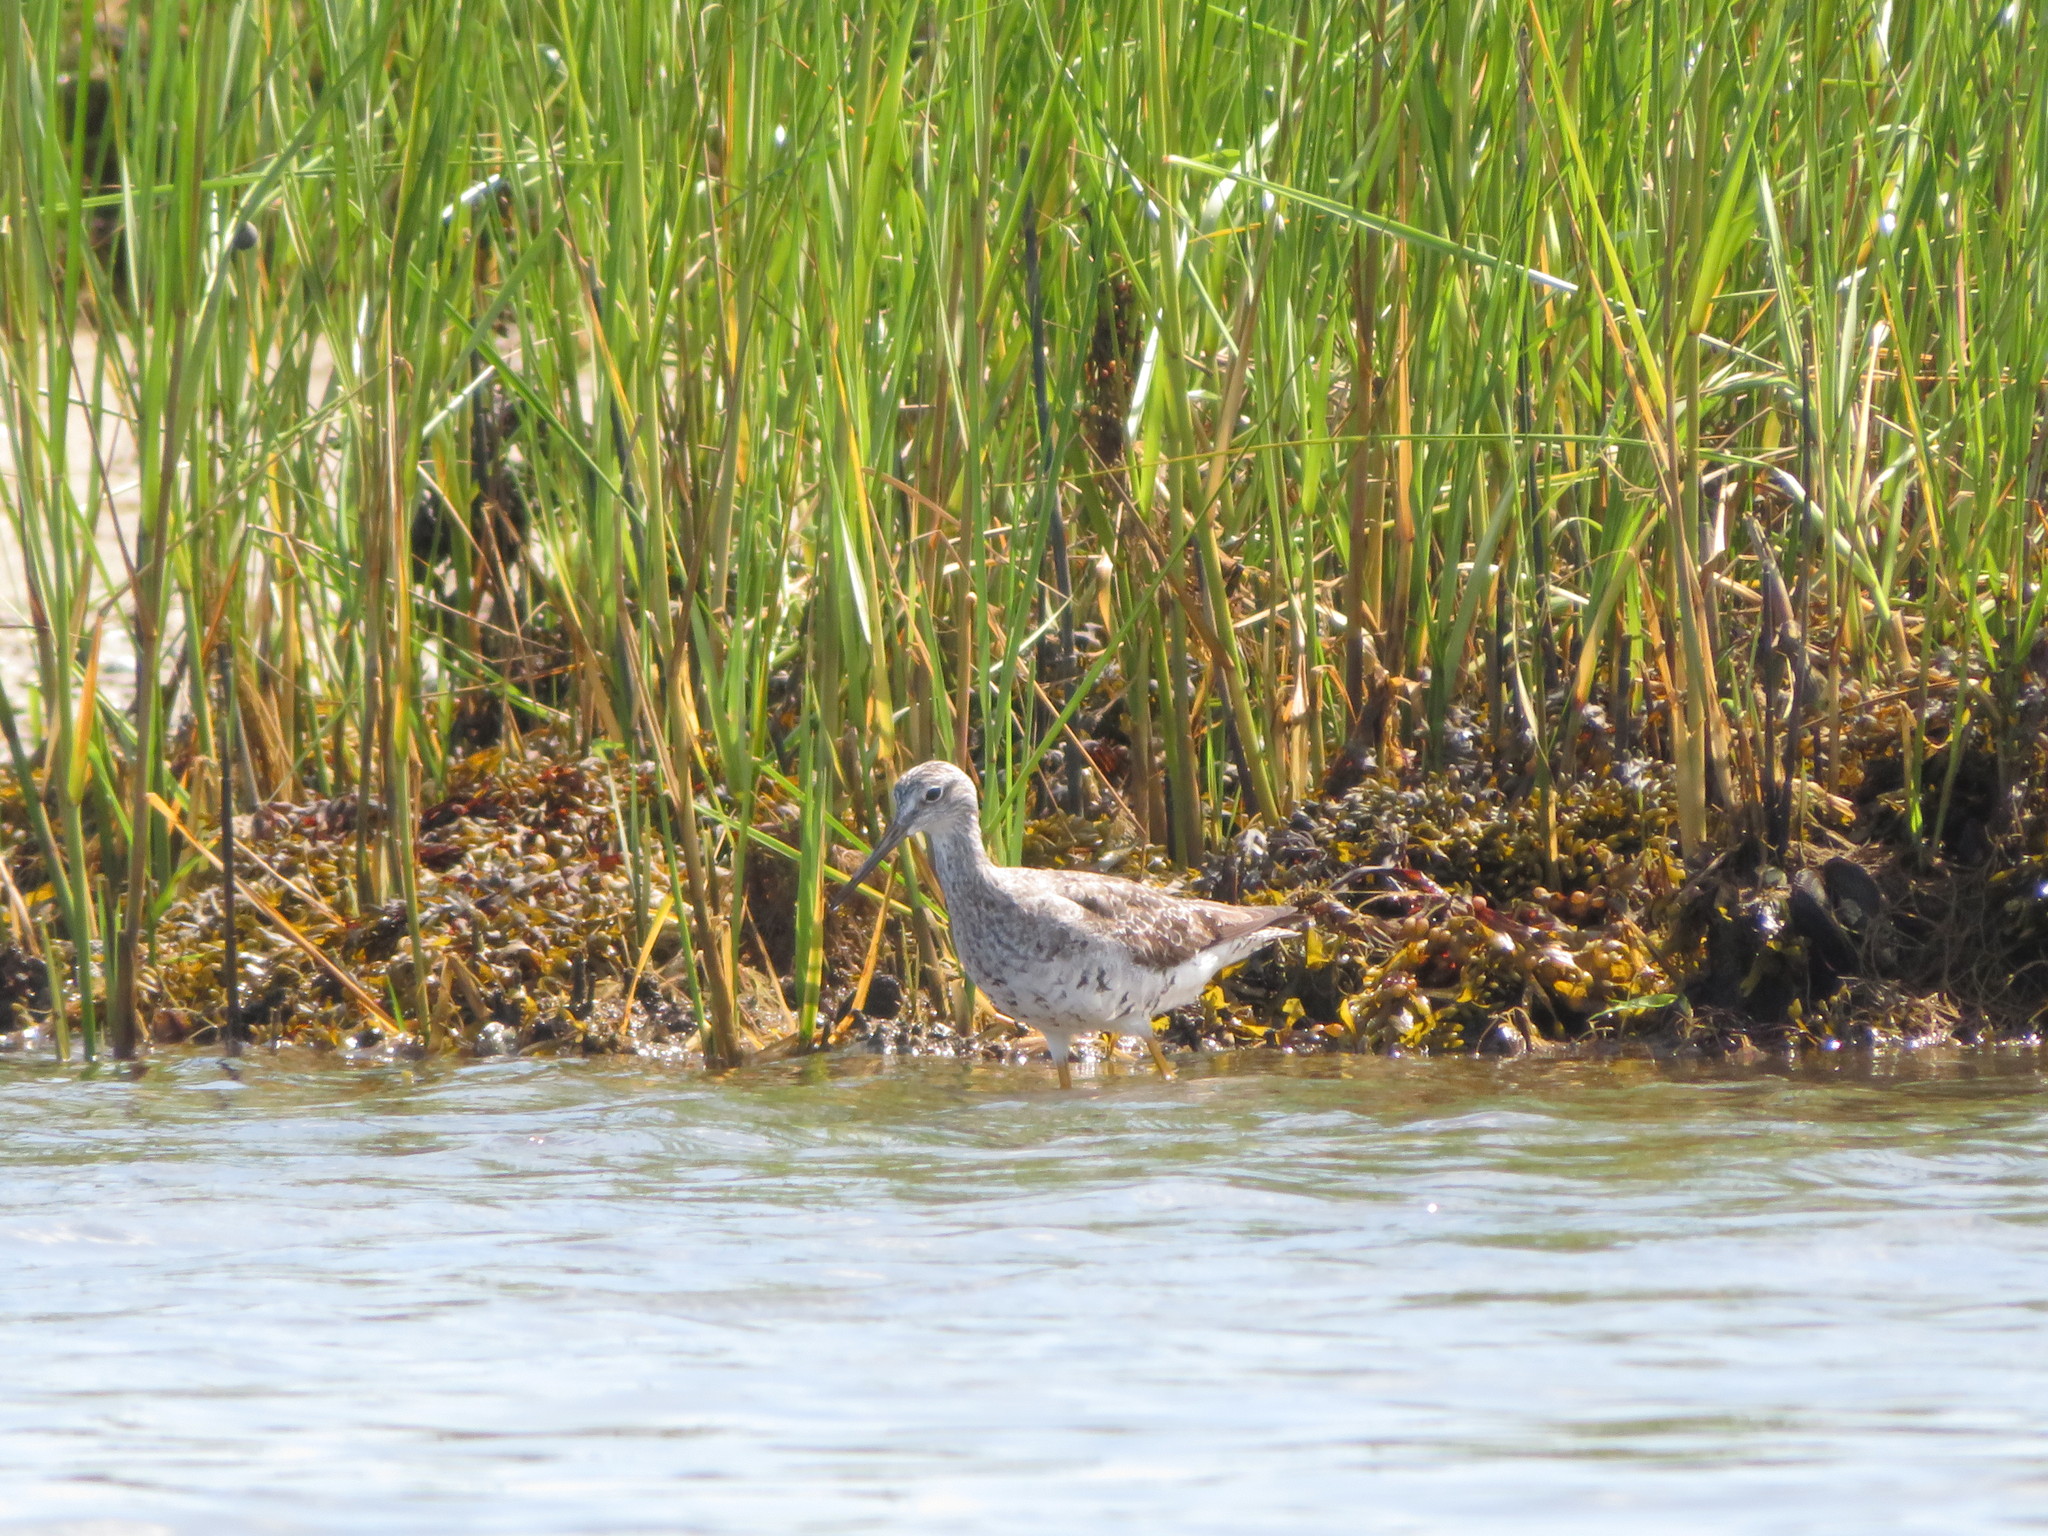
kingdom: Animalia
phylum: Chordata
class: Aves
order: Charadriiformes
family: Scolopacidae
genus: Tringa
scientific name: Tringa melanoleuca
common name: Greater yellowlegs
